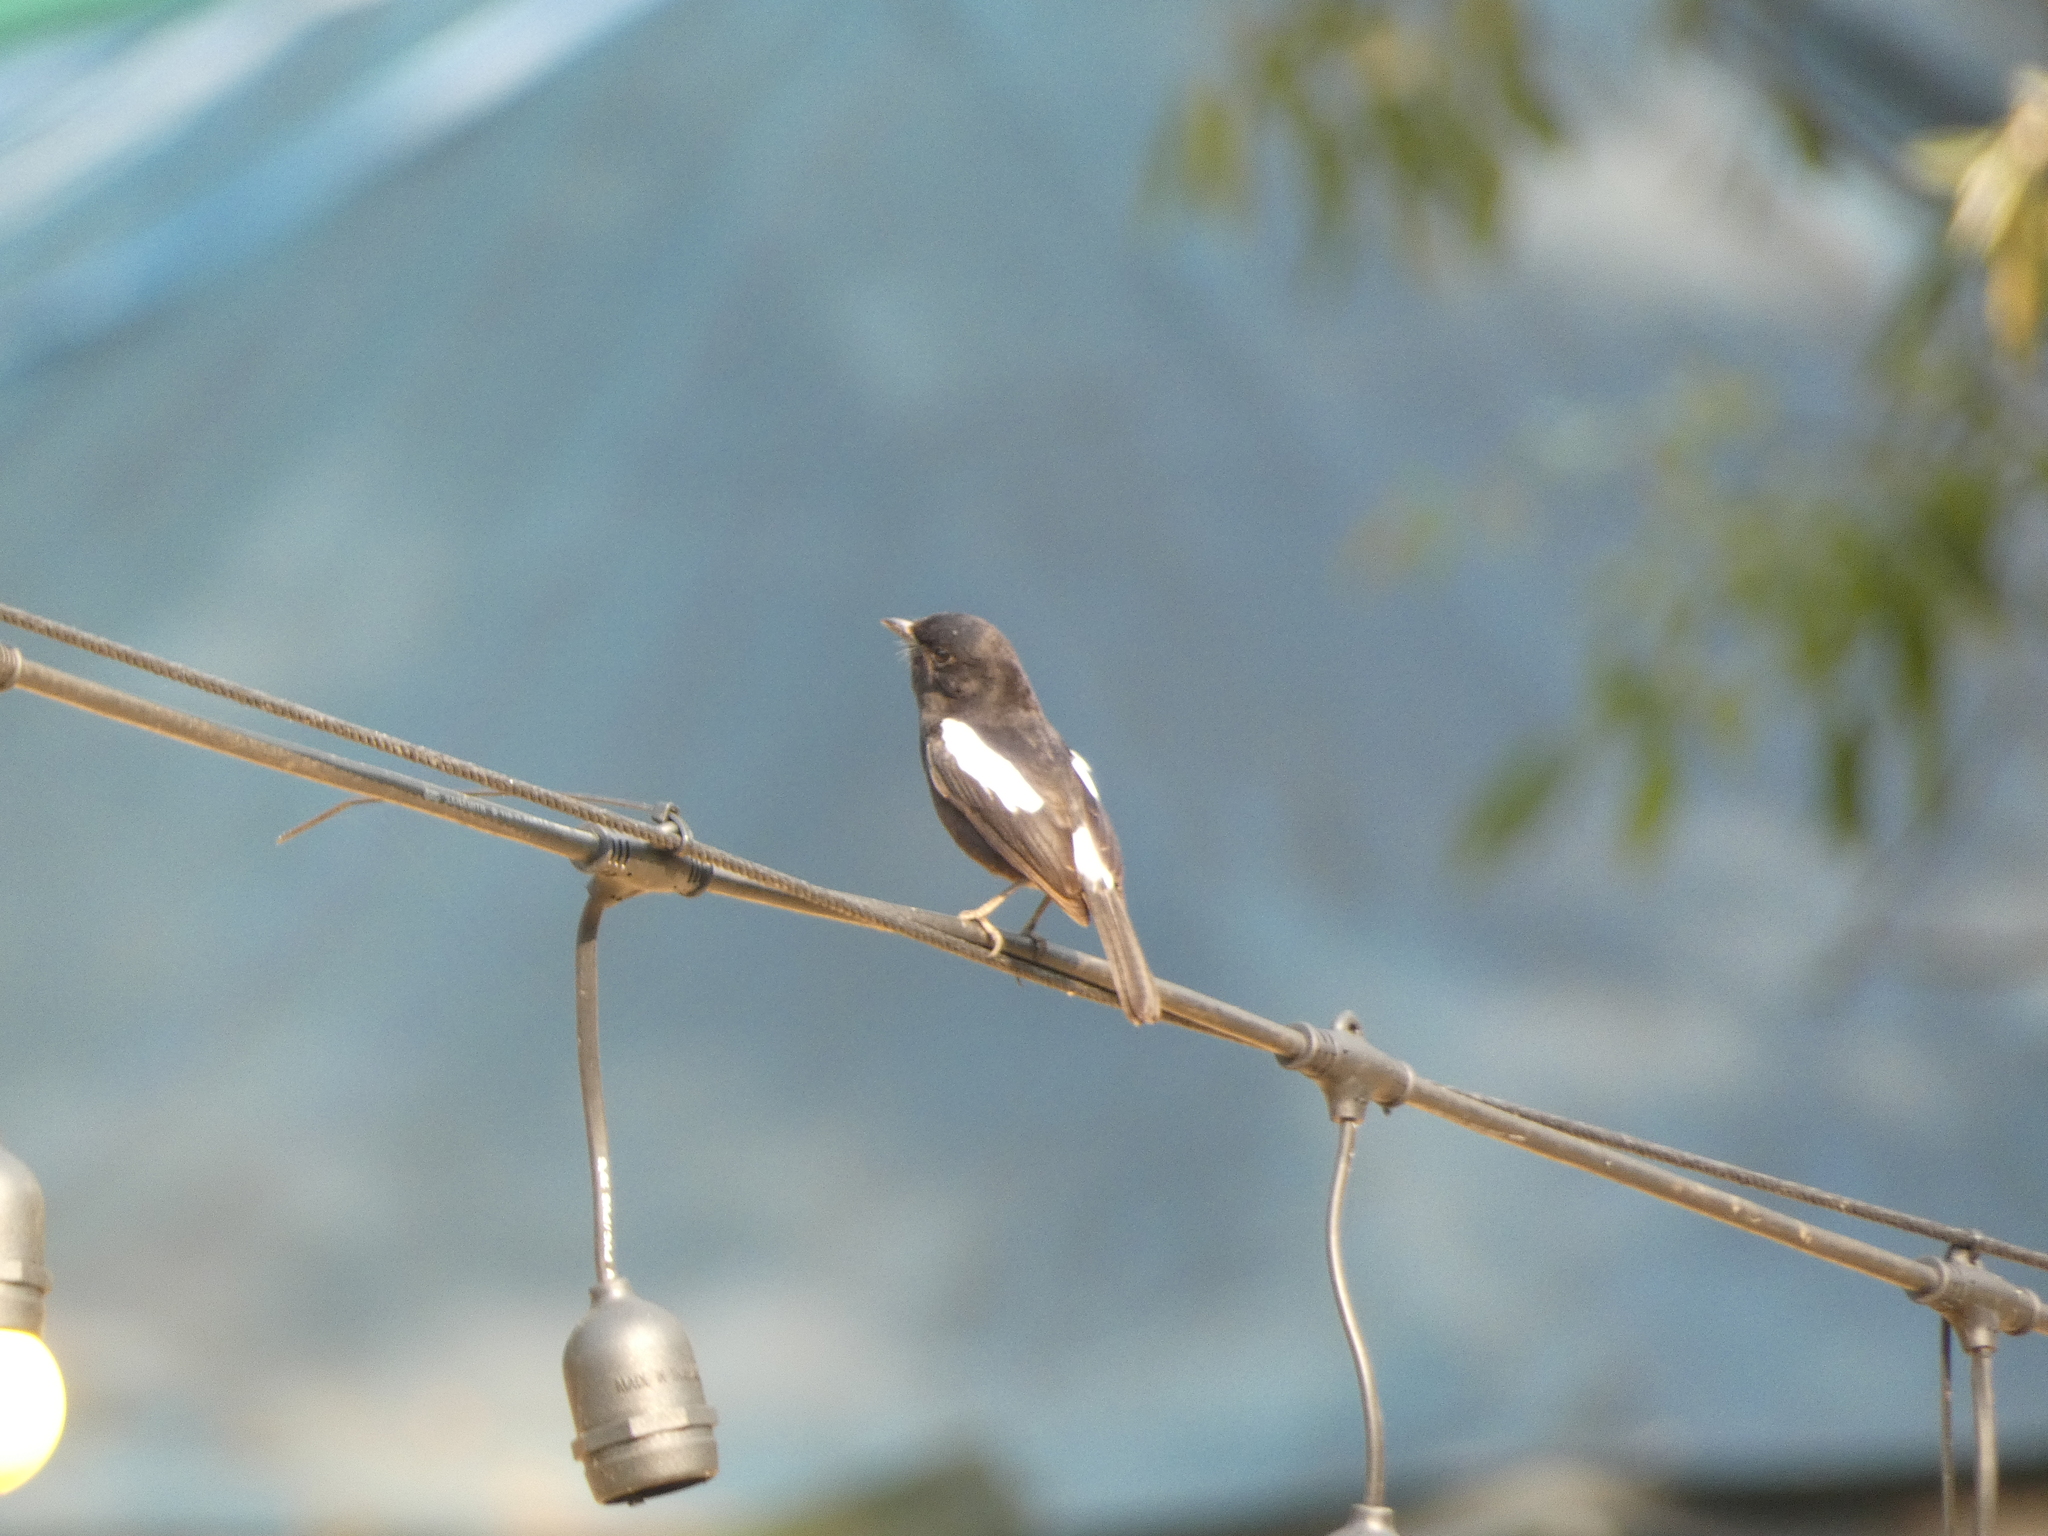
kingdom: Animalia
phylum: Chordata
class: Aves
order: Passeriformes
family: Muscicapidae
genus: Saxicola
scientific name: Saxicola caprata
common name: Pied bush chat
